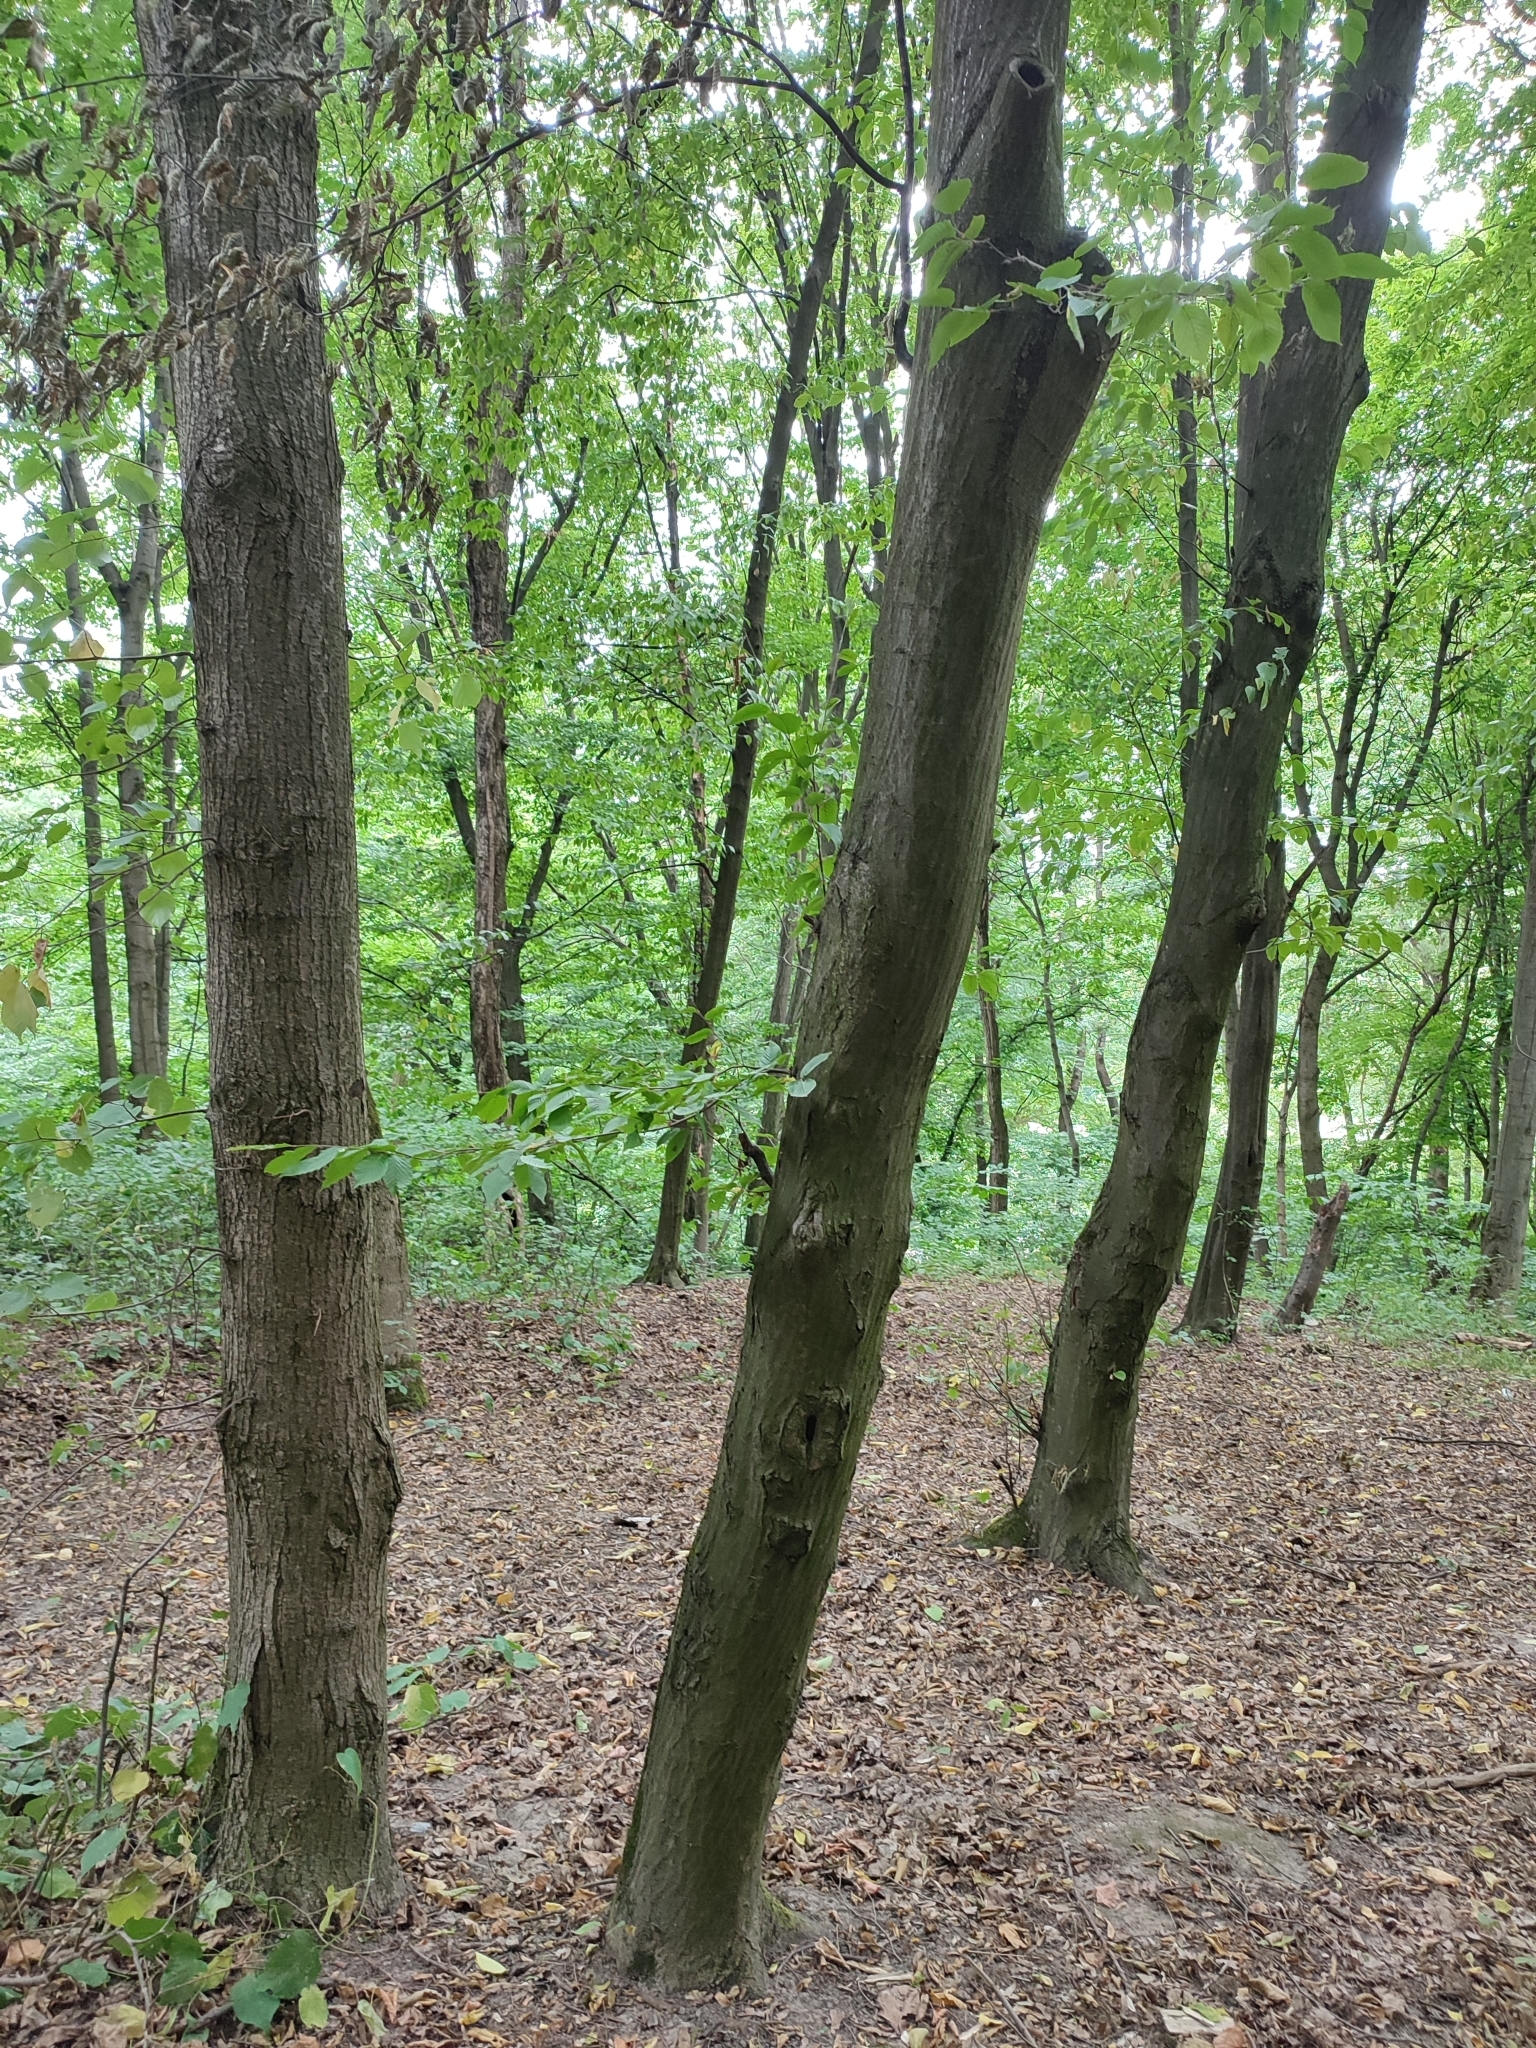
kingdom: Plantae
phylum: Tracheophyta
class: Magnoliopsida
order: Fagales
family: Betulaceae
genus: Carpinus
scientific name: Carpinus betulus
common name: Hornbeam
